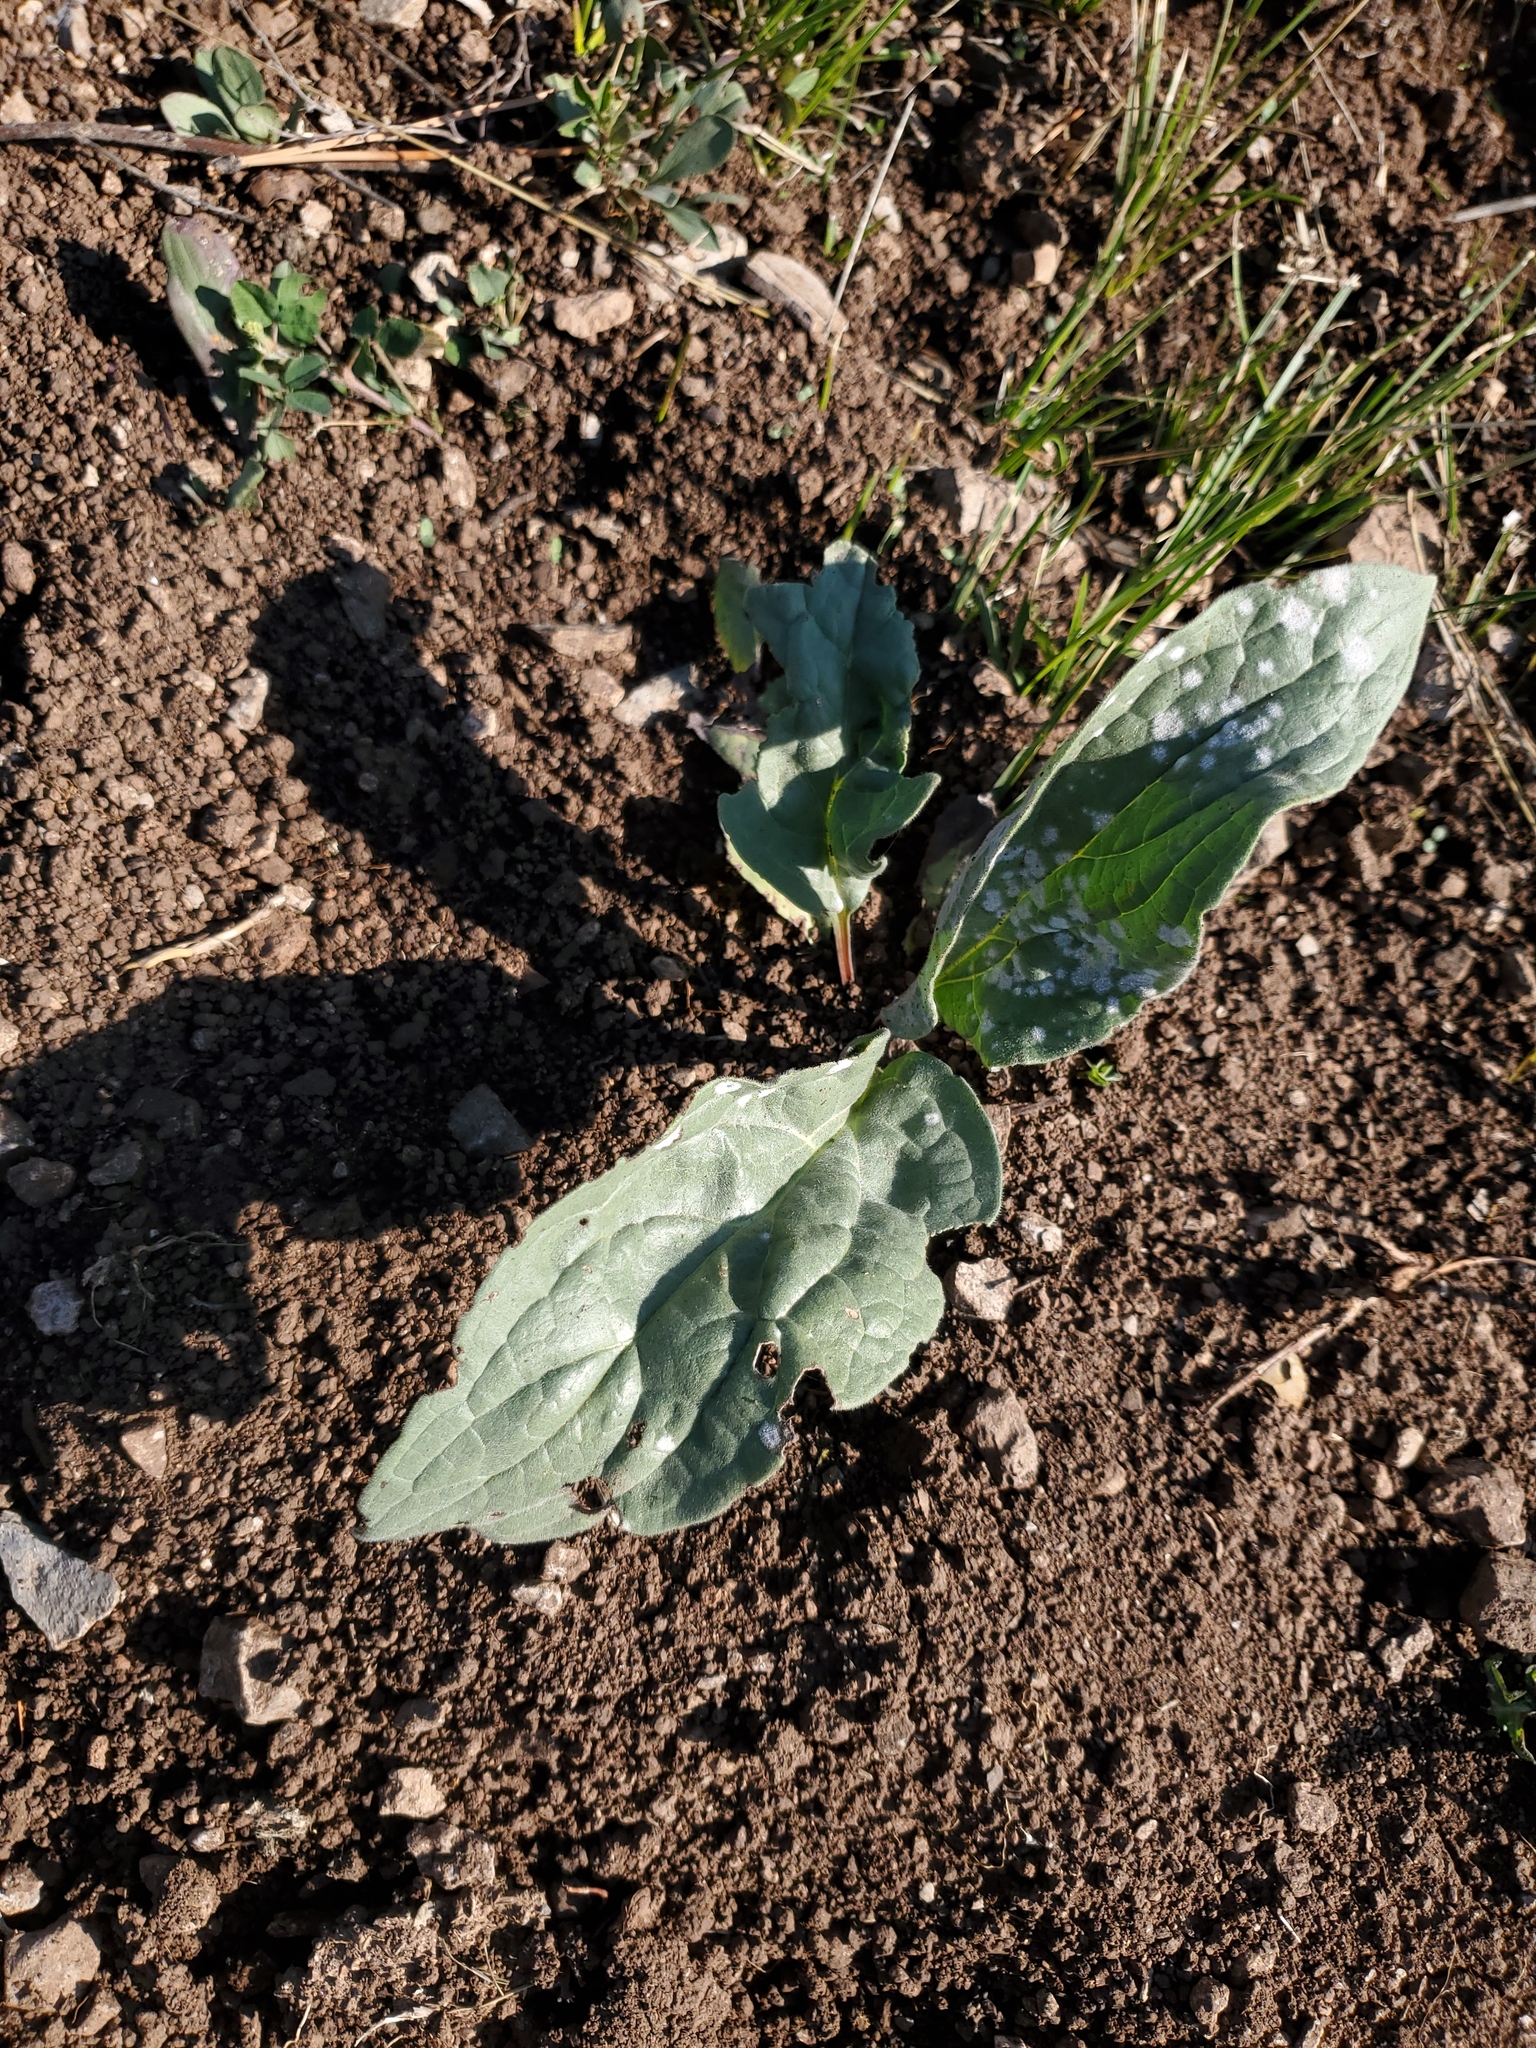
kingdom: Plantae
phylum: Tracheophyta
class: Magnoliopsida
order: Boraginales
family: Boraginaceae
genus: Cynoglossum
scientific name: Cynoglossum officinale
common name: Hound's-tongue
